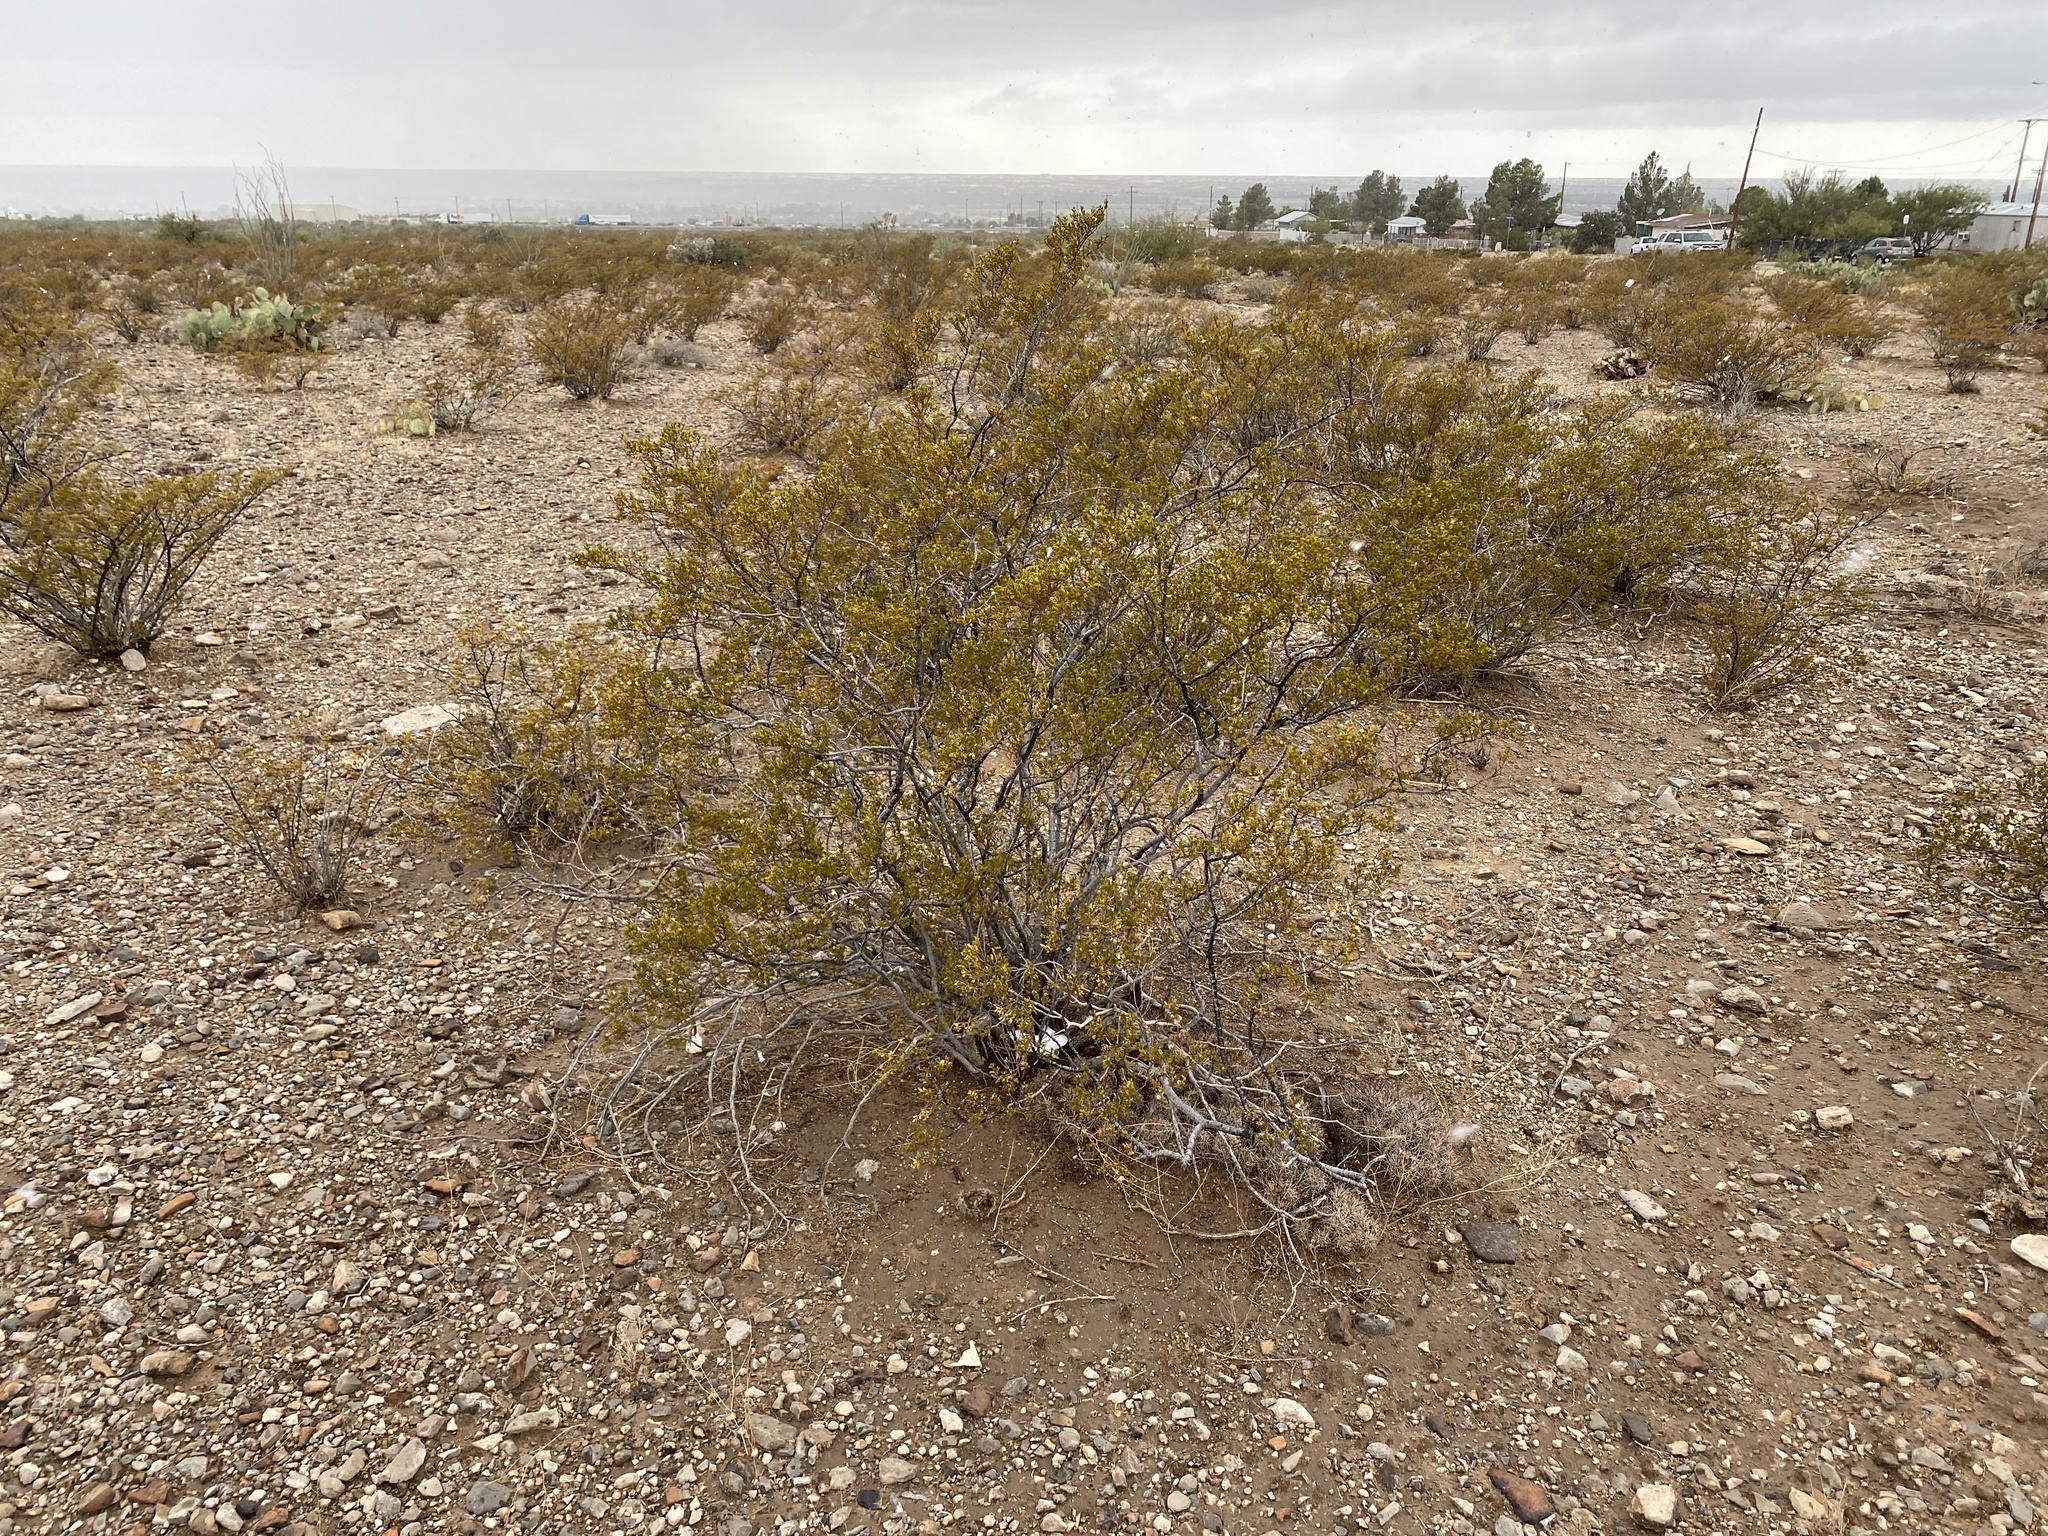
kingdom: Plantae
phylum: Tracheophyta
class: Magnoliopsida
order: Zygophyllales
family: Zygophyllaceae
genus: Larrea
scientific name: Larrea tridentata
